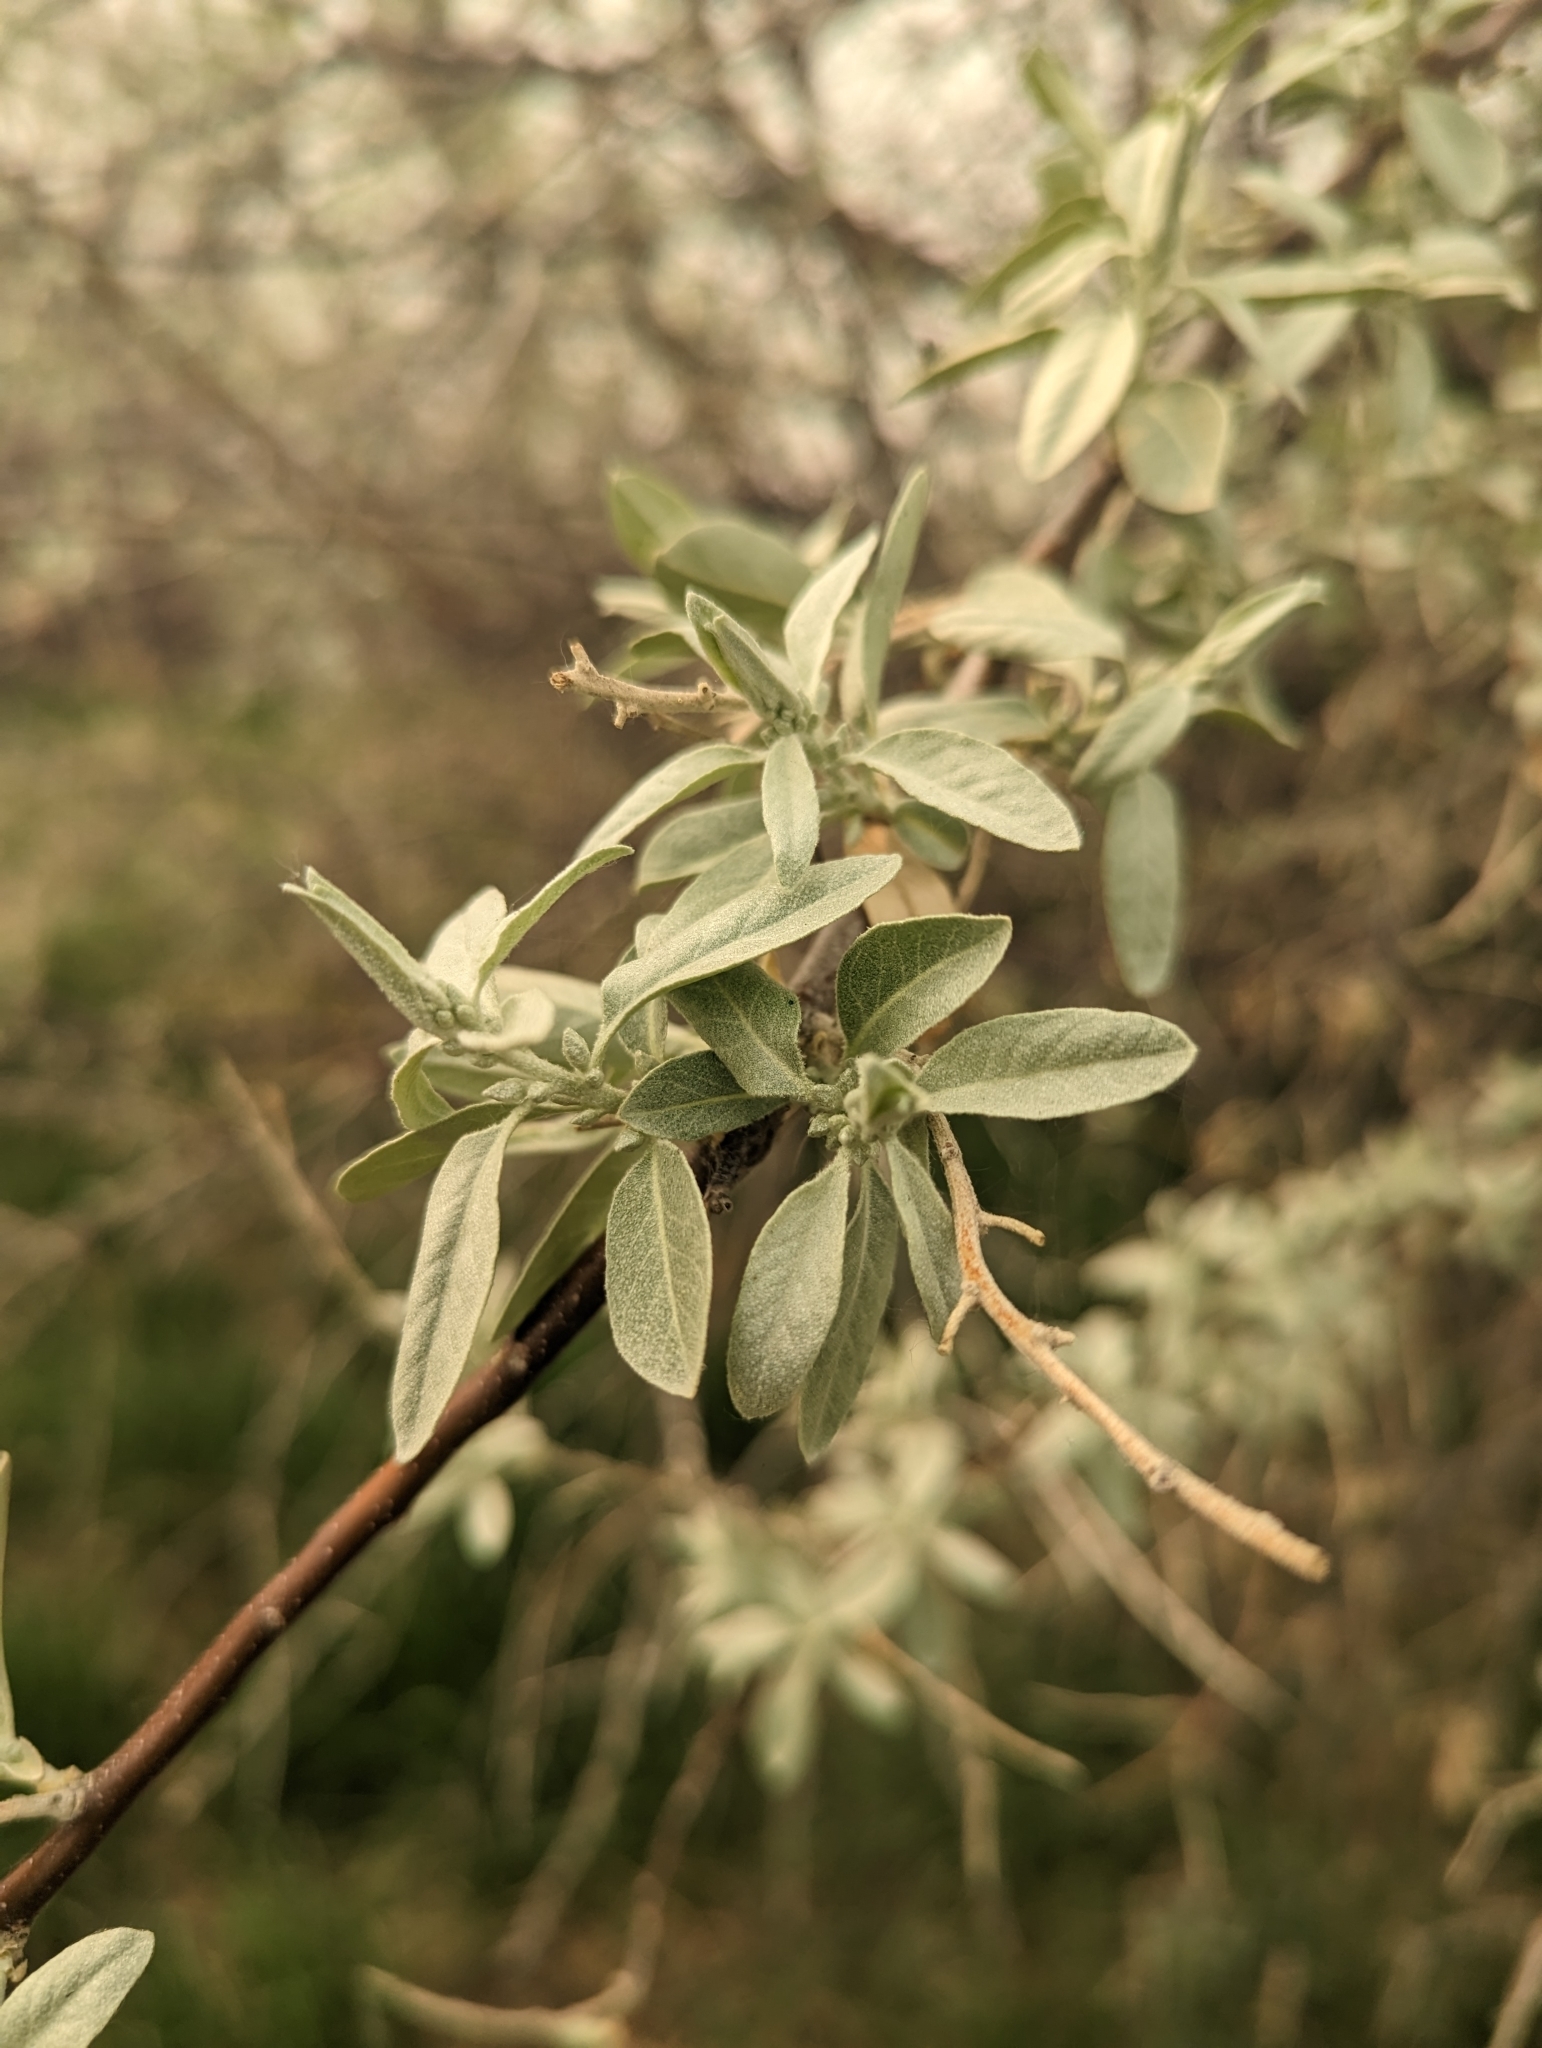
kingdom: Plantae
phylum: Tracheophyta
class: Magnoliopsida
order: Rosales
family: Elaeagnaceae
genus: Elaeagnus
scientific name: Elaeagnus angustifolia
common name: Russian olive
